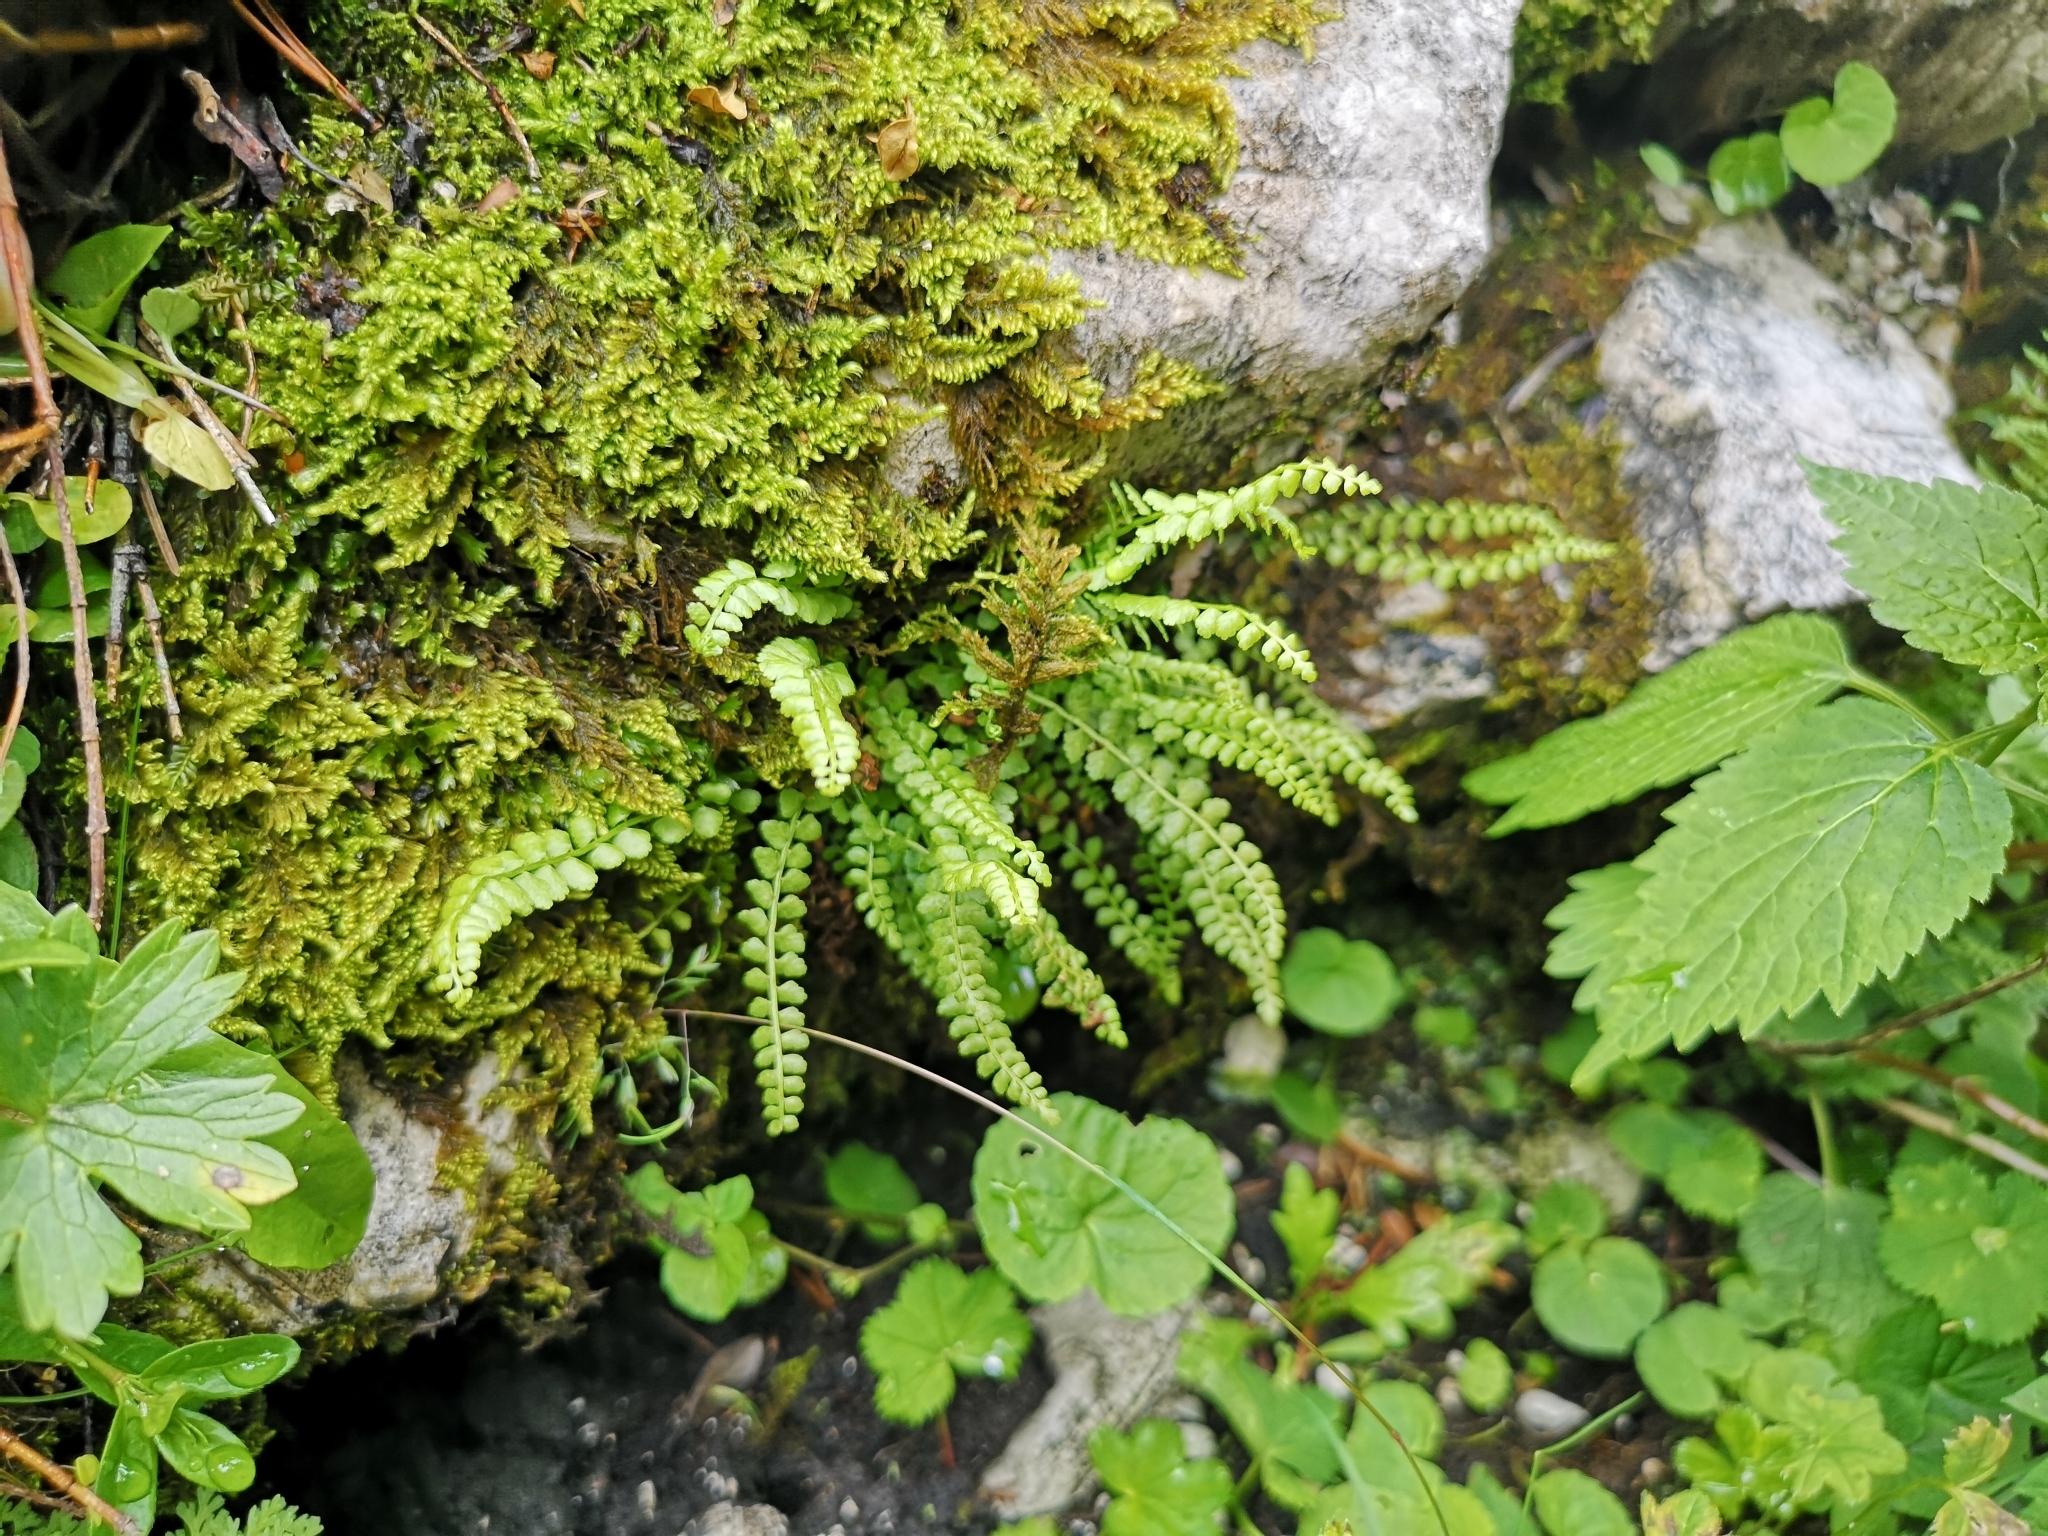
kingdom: Plantae
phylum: Tracheophyta
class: Polypodiopsida
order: Polypodiales
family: Aspleniaceae
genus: Asplenium
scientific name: Asplenium viride
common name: Green spleenwort
